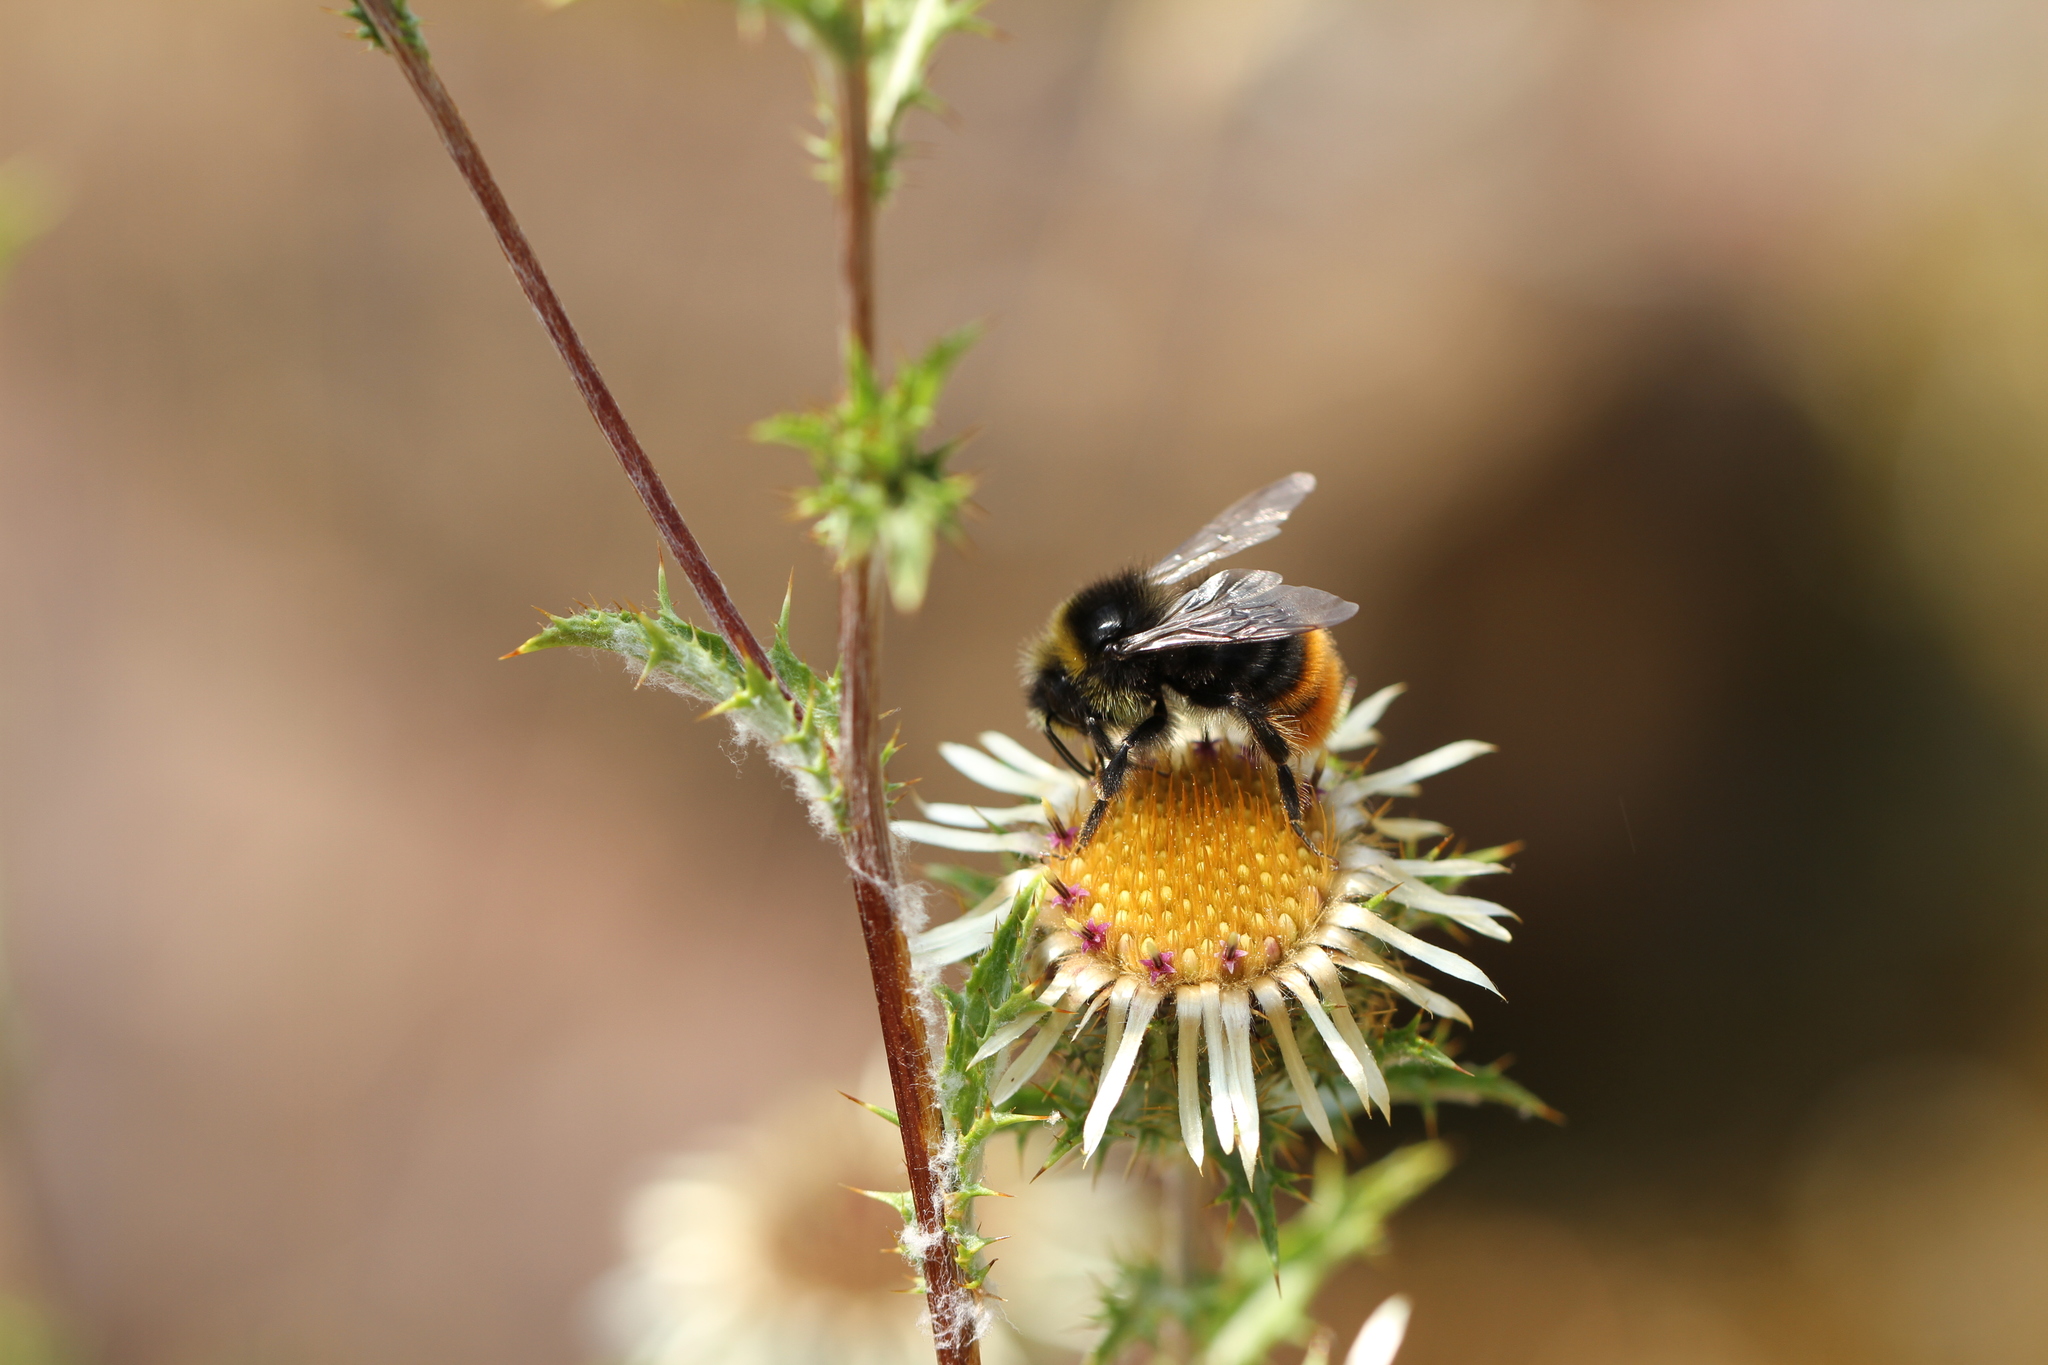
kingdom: Animalia
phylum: Arthropoda
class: Insecta
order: Hymenoptera
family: Apidae
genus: Bombus
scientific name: Bombus lapidarius
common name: Large red-tailed humble-bee
